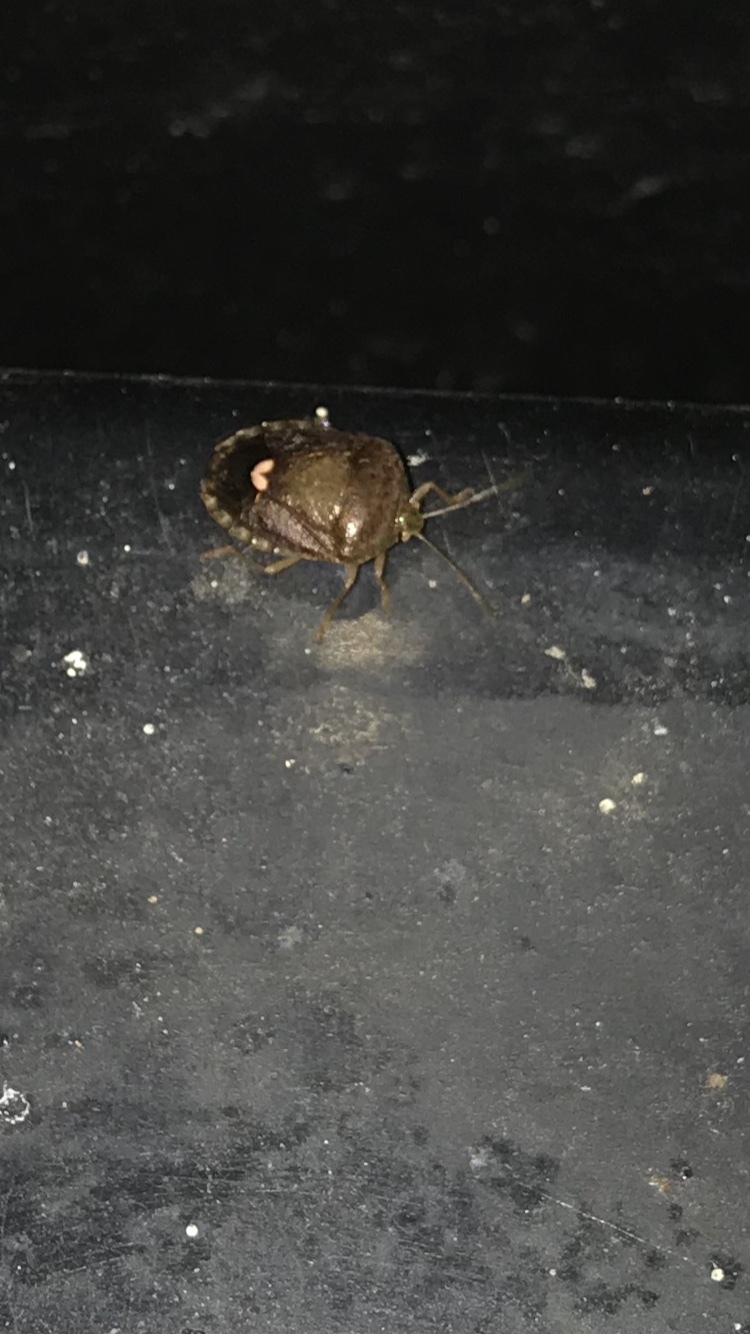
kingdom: Animalia
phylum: Arthropoda
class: Insecta
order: Hemiptera
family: Pentatomidae
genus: Edessa
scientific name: Edessa bifida
